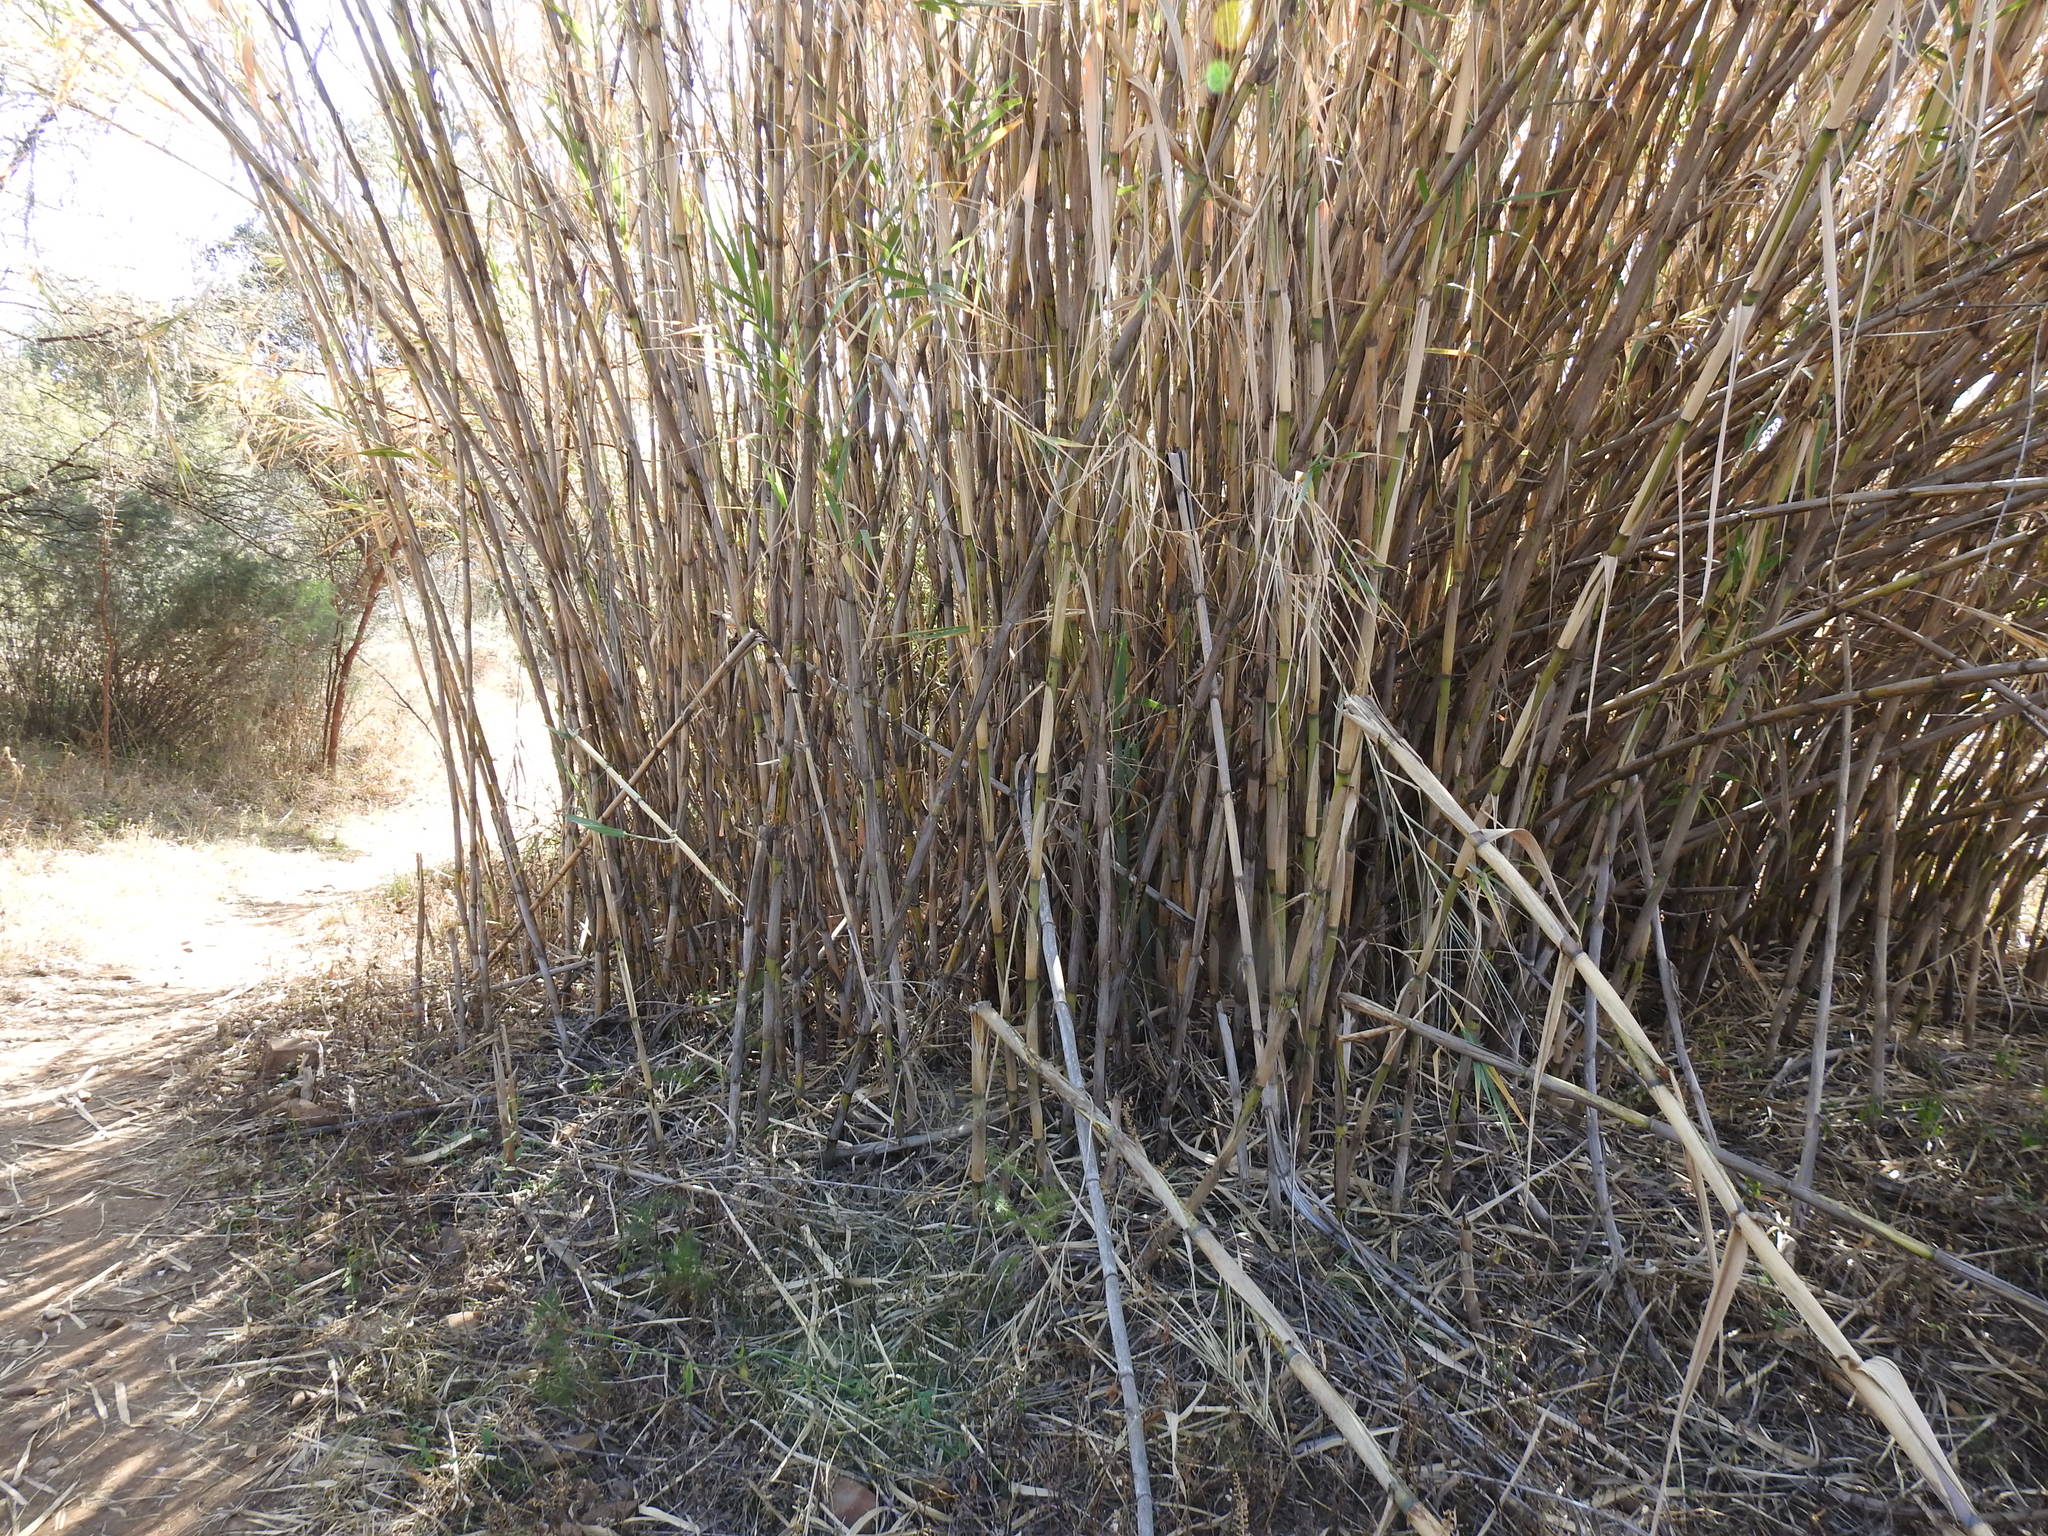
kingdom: Plantae
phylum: Tracheophyta
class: Liliopsida
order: Poales
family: Poaceae
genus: Arundo
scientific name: Arundo donax
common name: Giant reed
